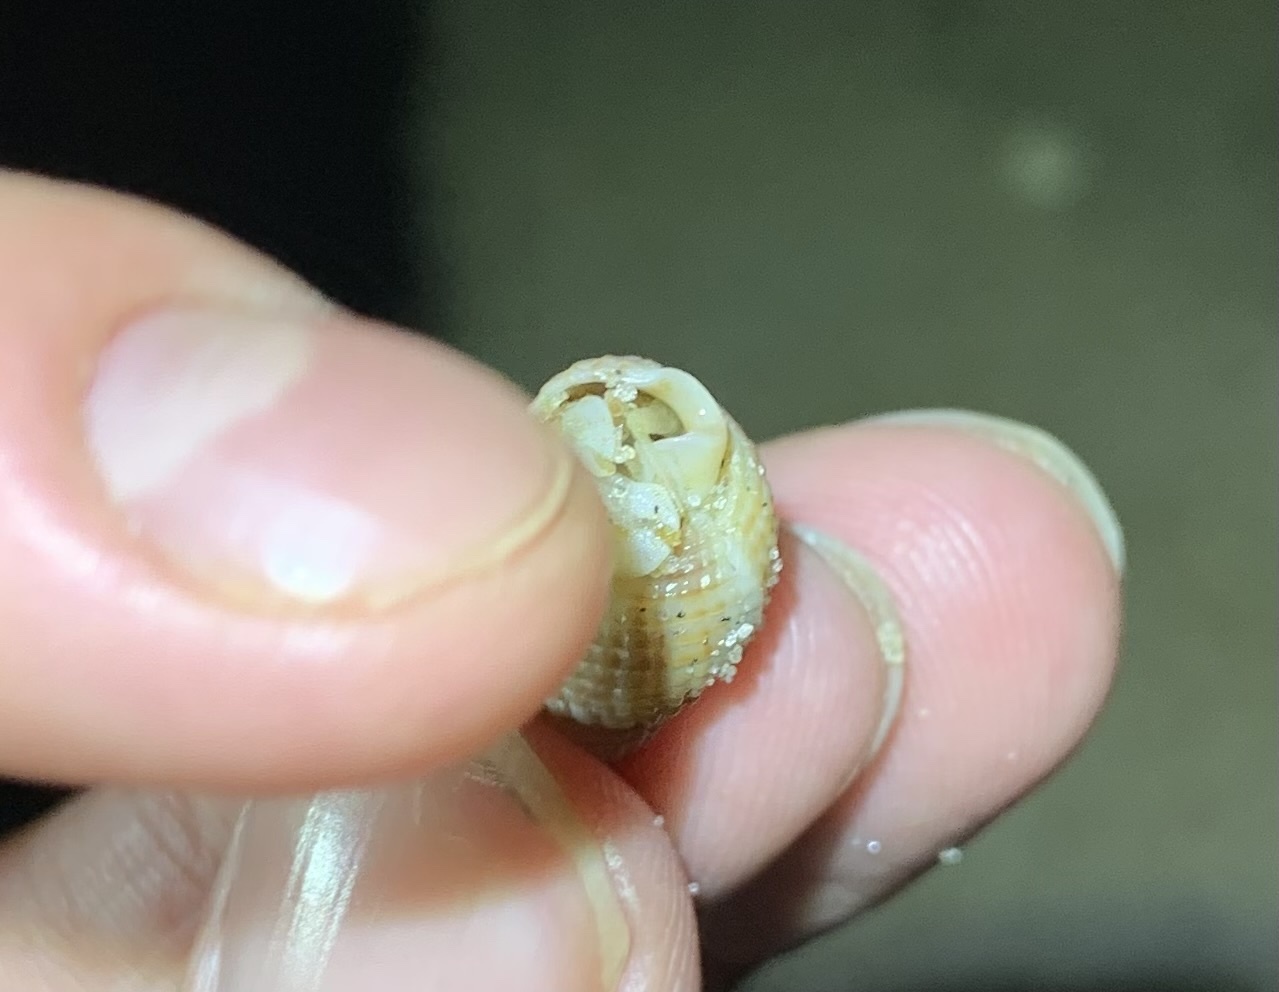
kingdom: Animalia
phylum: Arthropoda
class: Malacostraca
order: Decapoda
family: Paguridae
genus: Pagurus
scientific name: Pagurus pollicaris
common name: Flatclaw hermit
